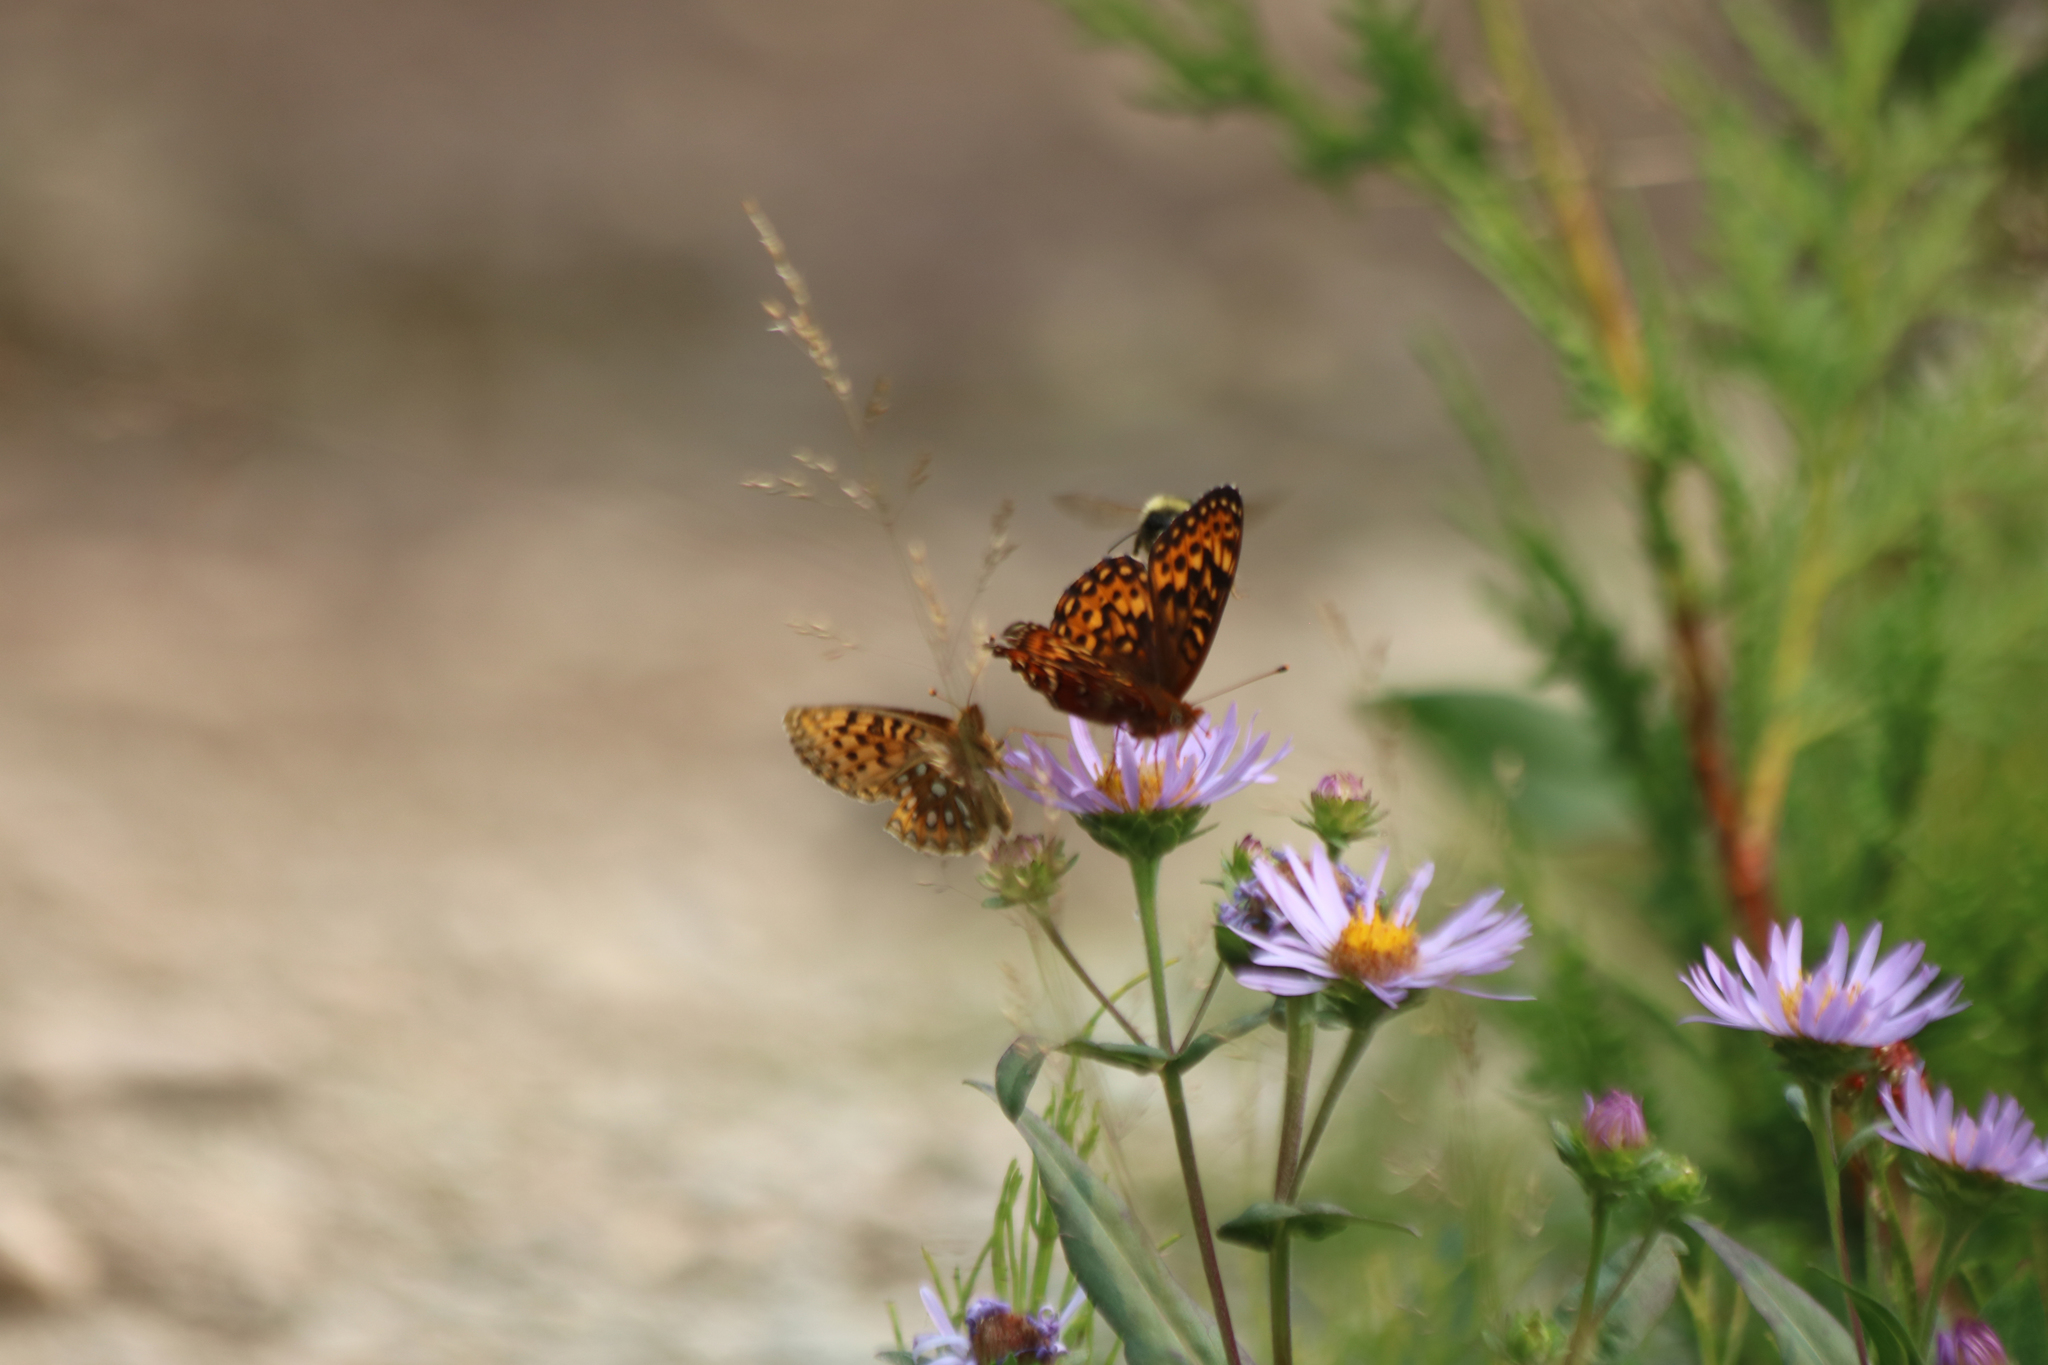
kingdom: Animalia
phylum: Arthropoda
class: Insecta
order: Lepidoptera
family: Nymphalidae
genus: Speyeria
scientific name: Speyeria hydaspe
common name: Hydaspe fritillary
